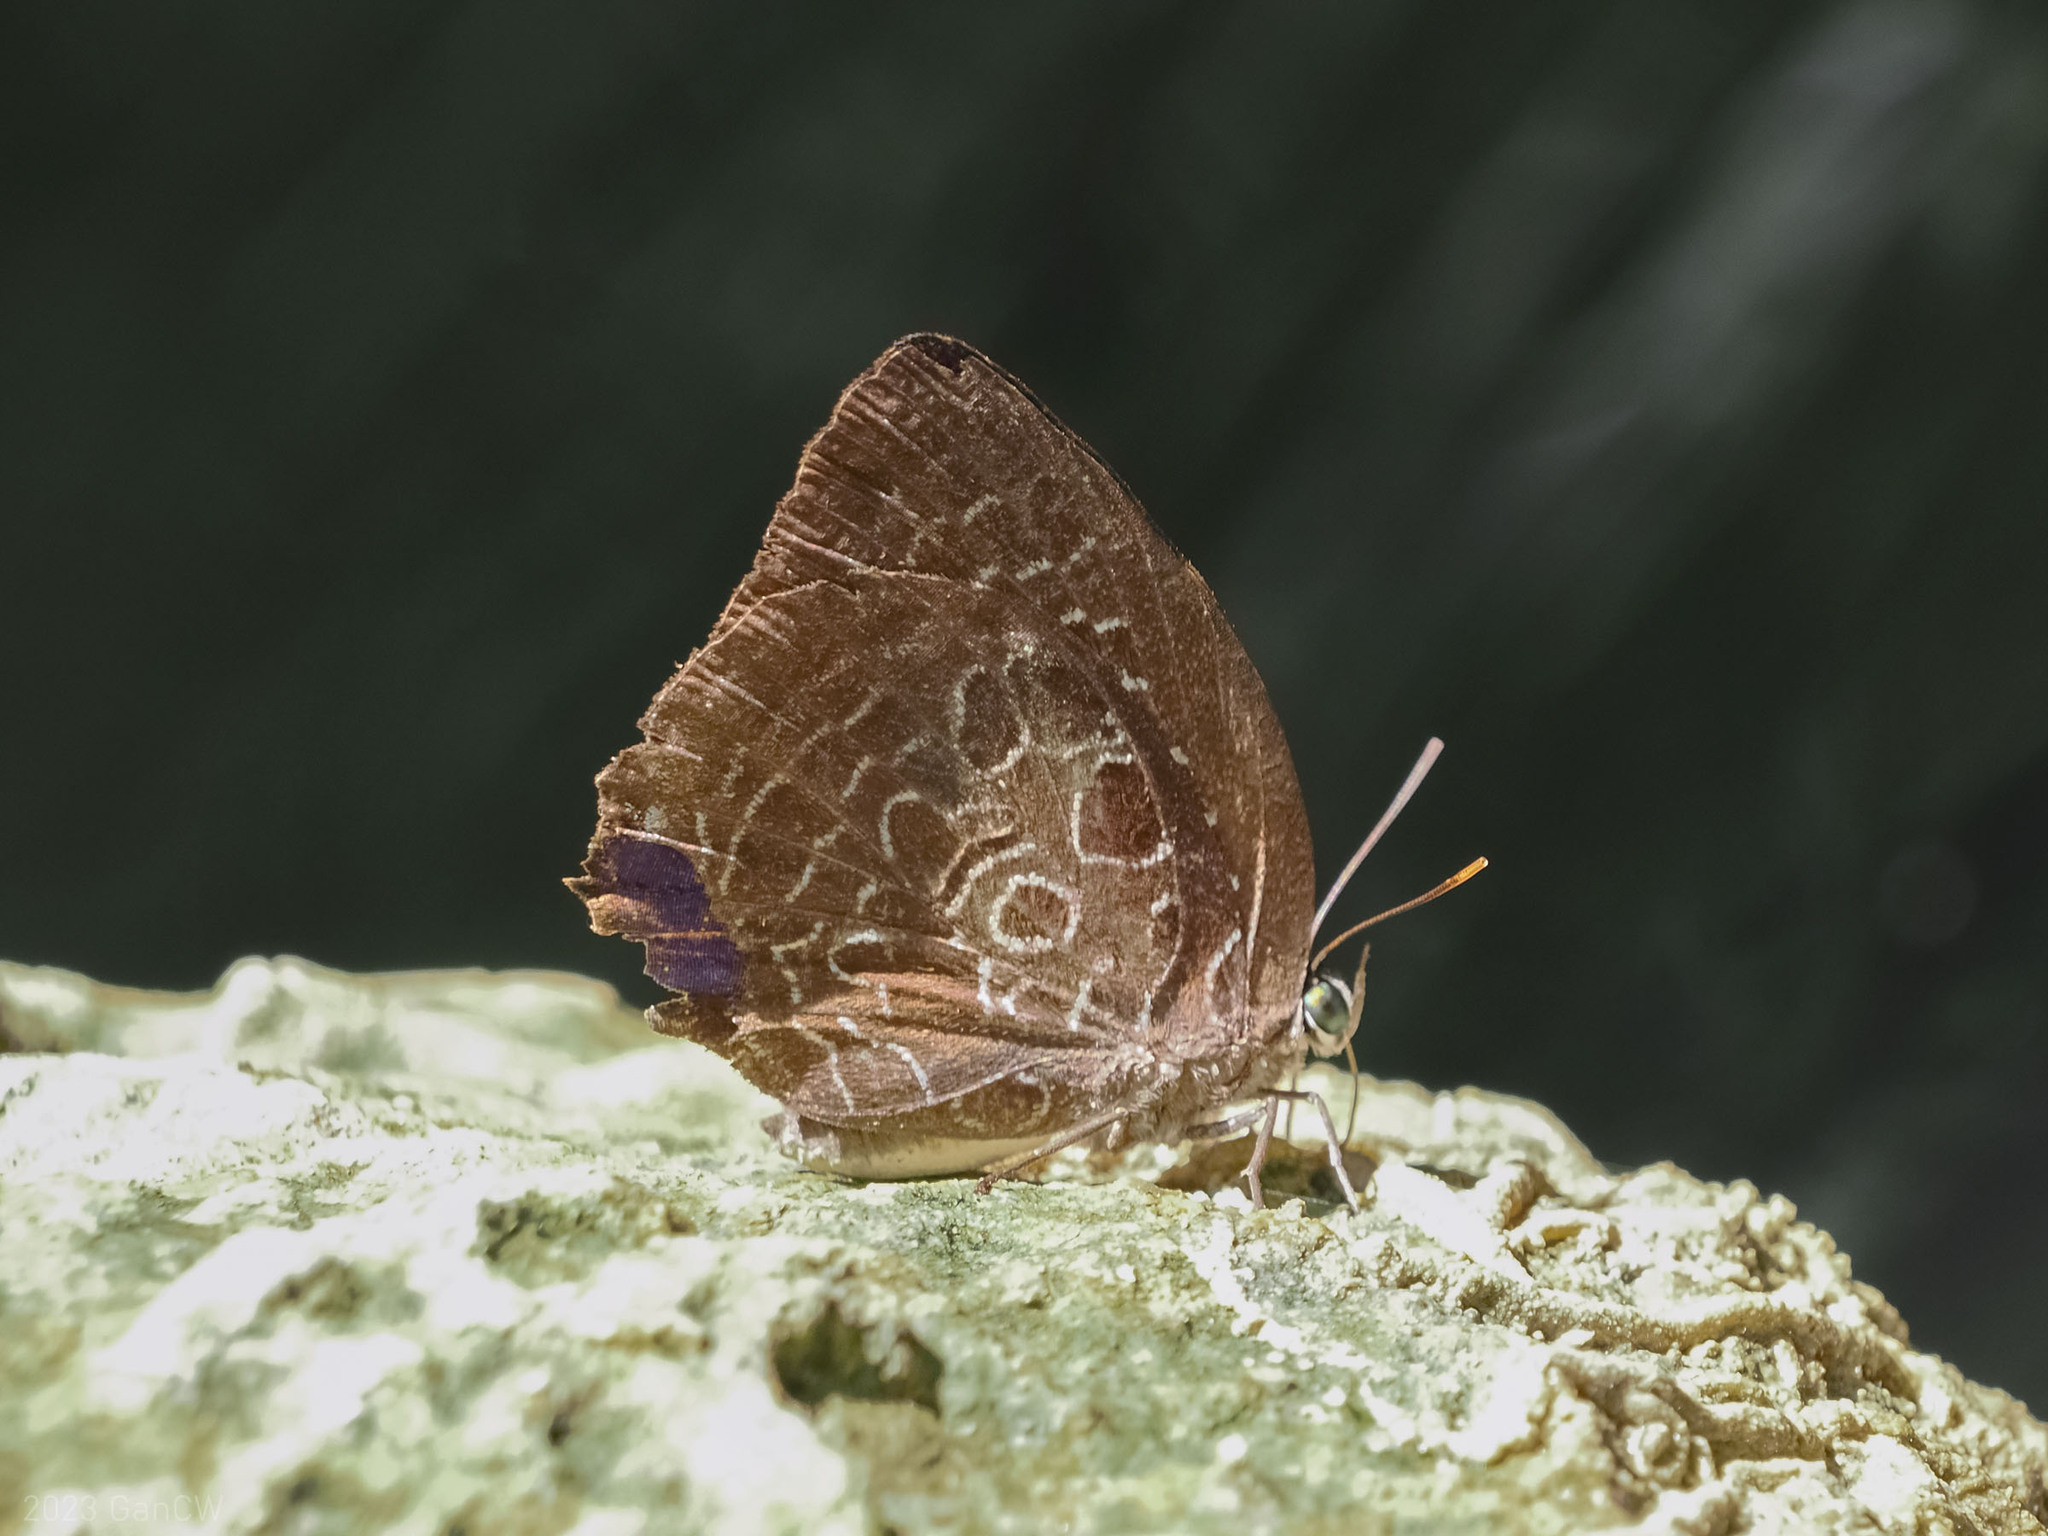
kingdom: Animalia
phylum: Arthropoda
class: Insecta
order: Lepidoptera
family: Lycaenidae
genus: Arhopala
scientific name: Arhopala acetes
